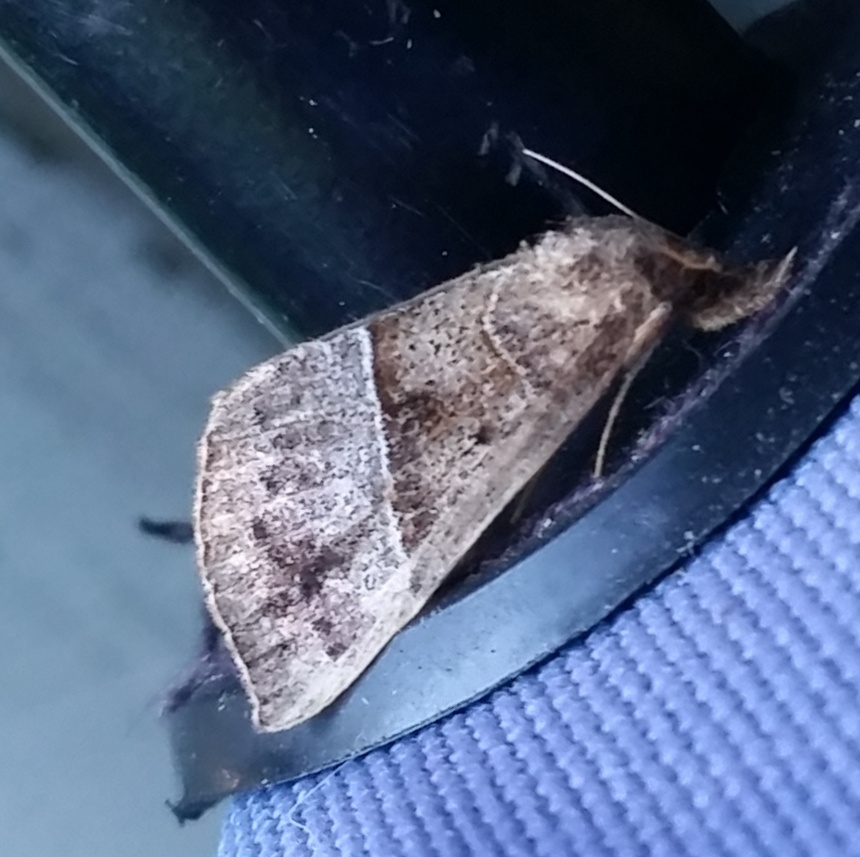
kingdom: Animalia
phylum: Arthropoda
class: Insecta
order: Lepidoptera
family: Erebidae
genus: Hypena
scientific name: Hypena deceptalis
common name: Deceptive snout
